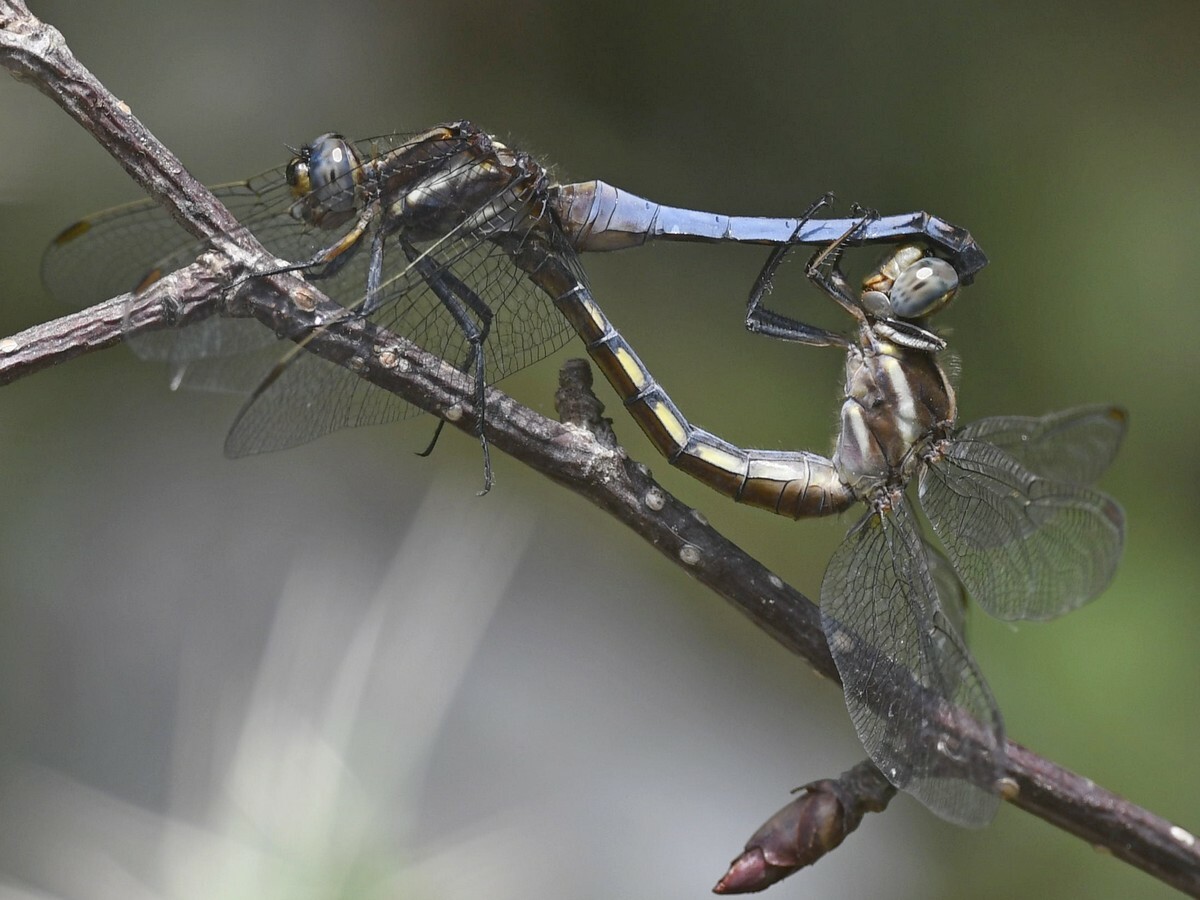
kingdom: Animalia
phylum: Arthropoda
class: Insecta
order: Odonata
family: Libellulidae
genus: Orthetrum
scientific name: Orthetrum glaucum
